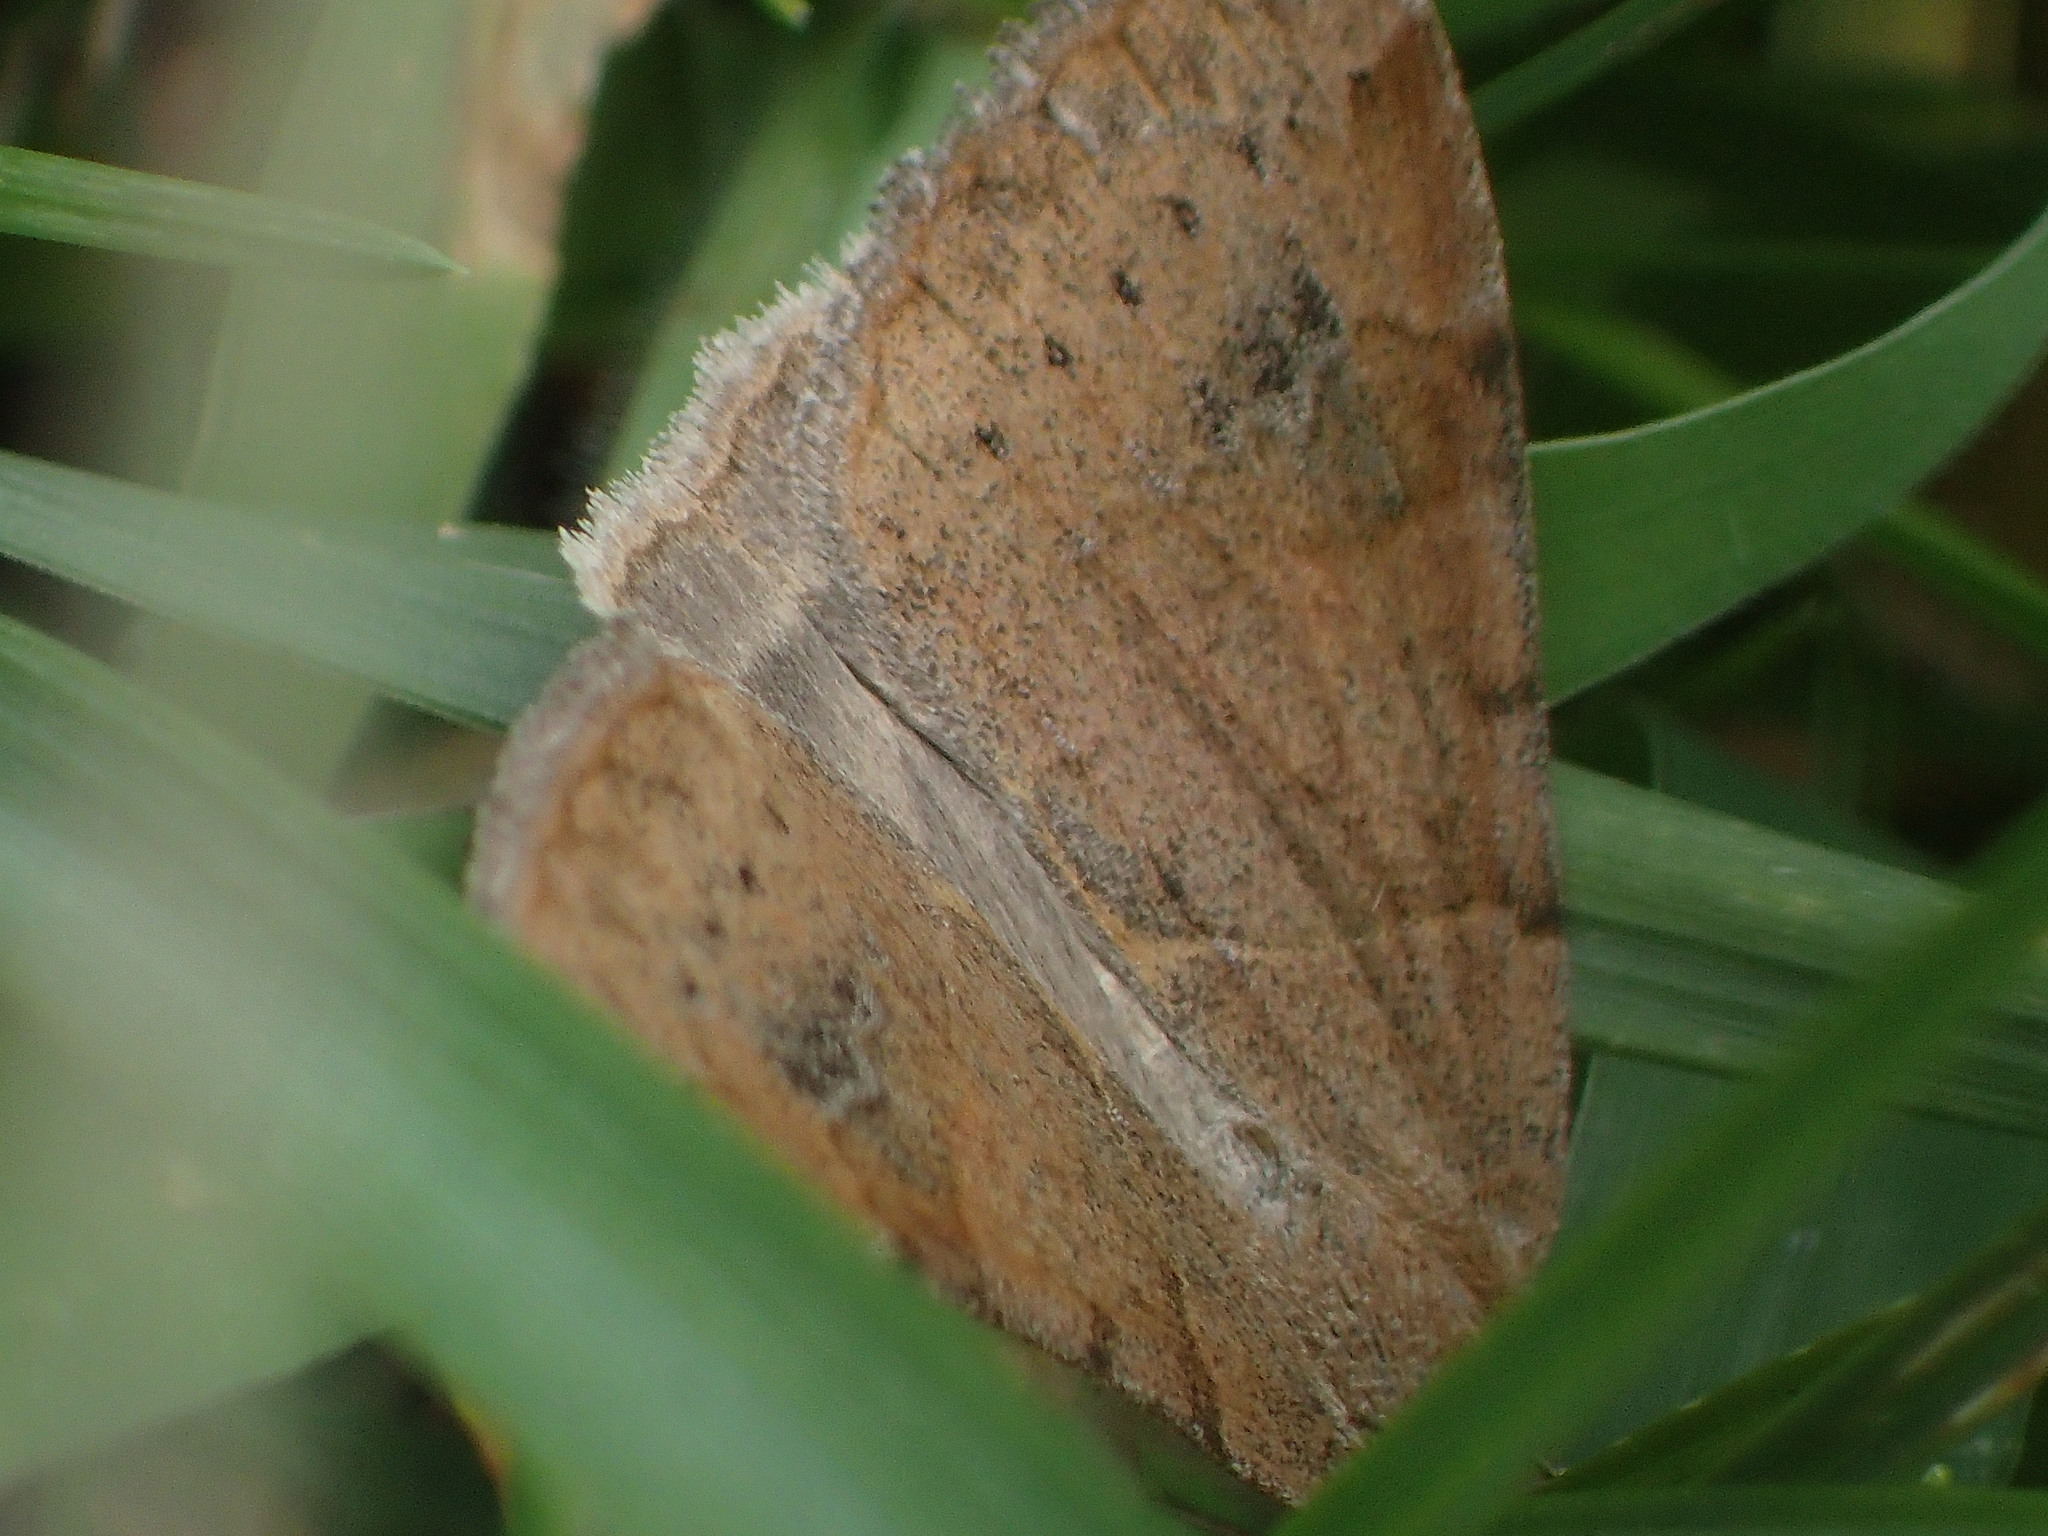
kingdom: Animalia
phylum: Arthropoda
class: Insecta
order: Lepidoptera
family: Erebidae
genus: Caenurgina
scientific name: Caenurgina erechtea
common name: Forage looper moth
